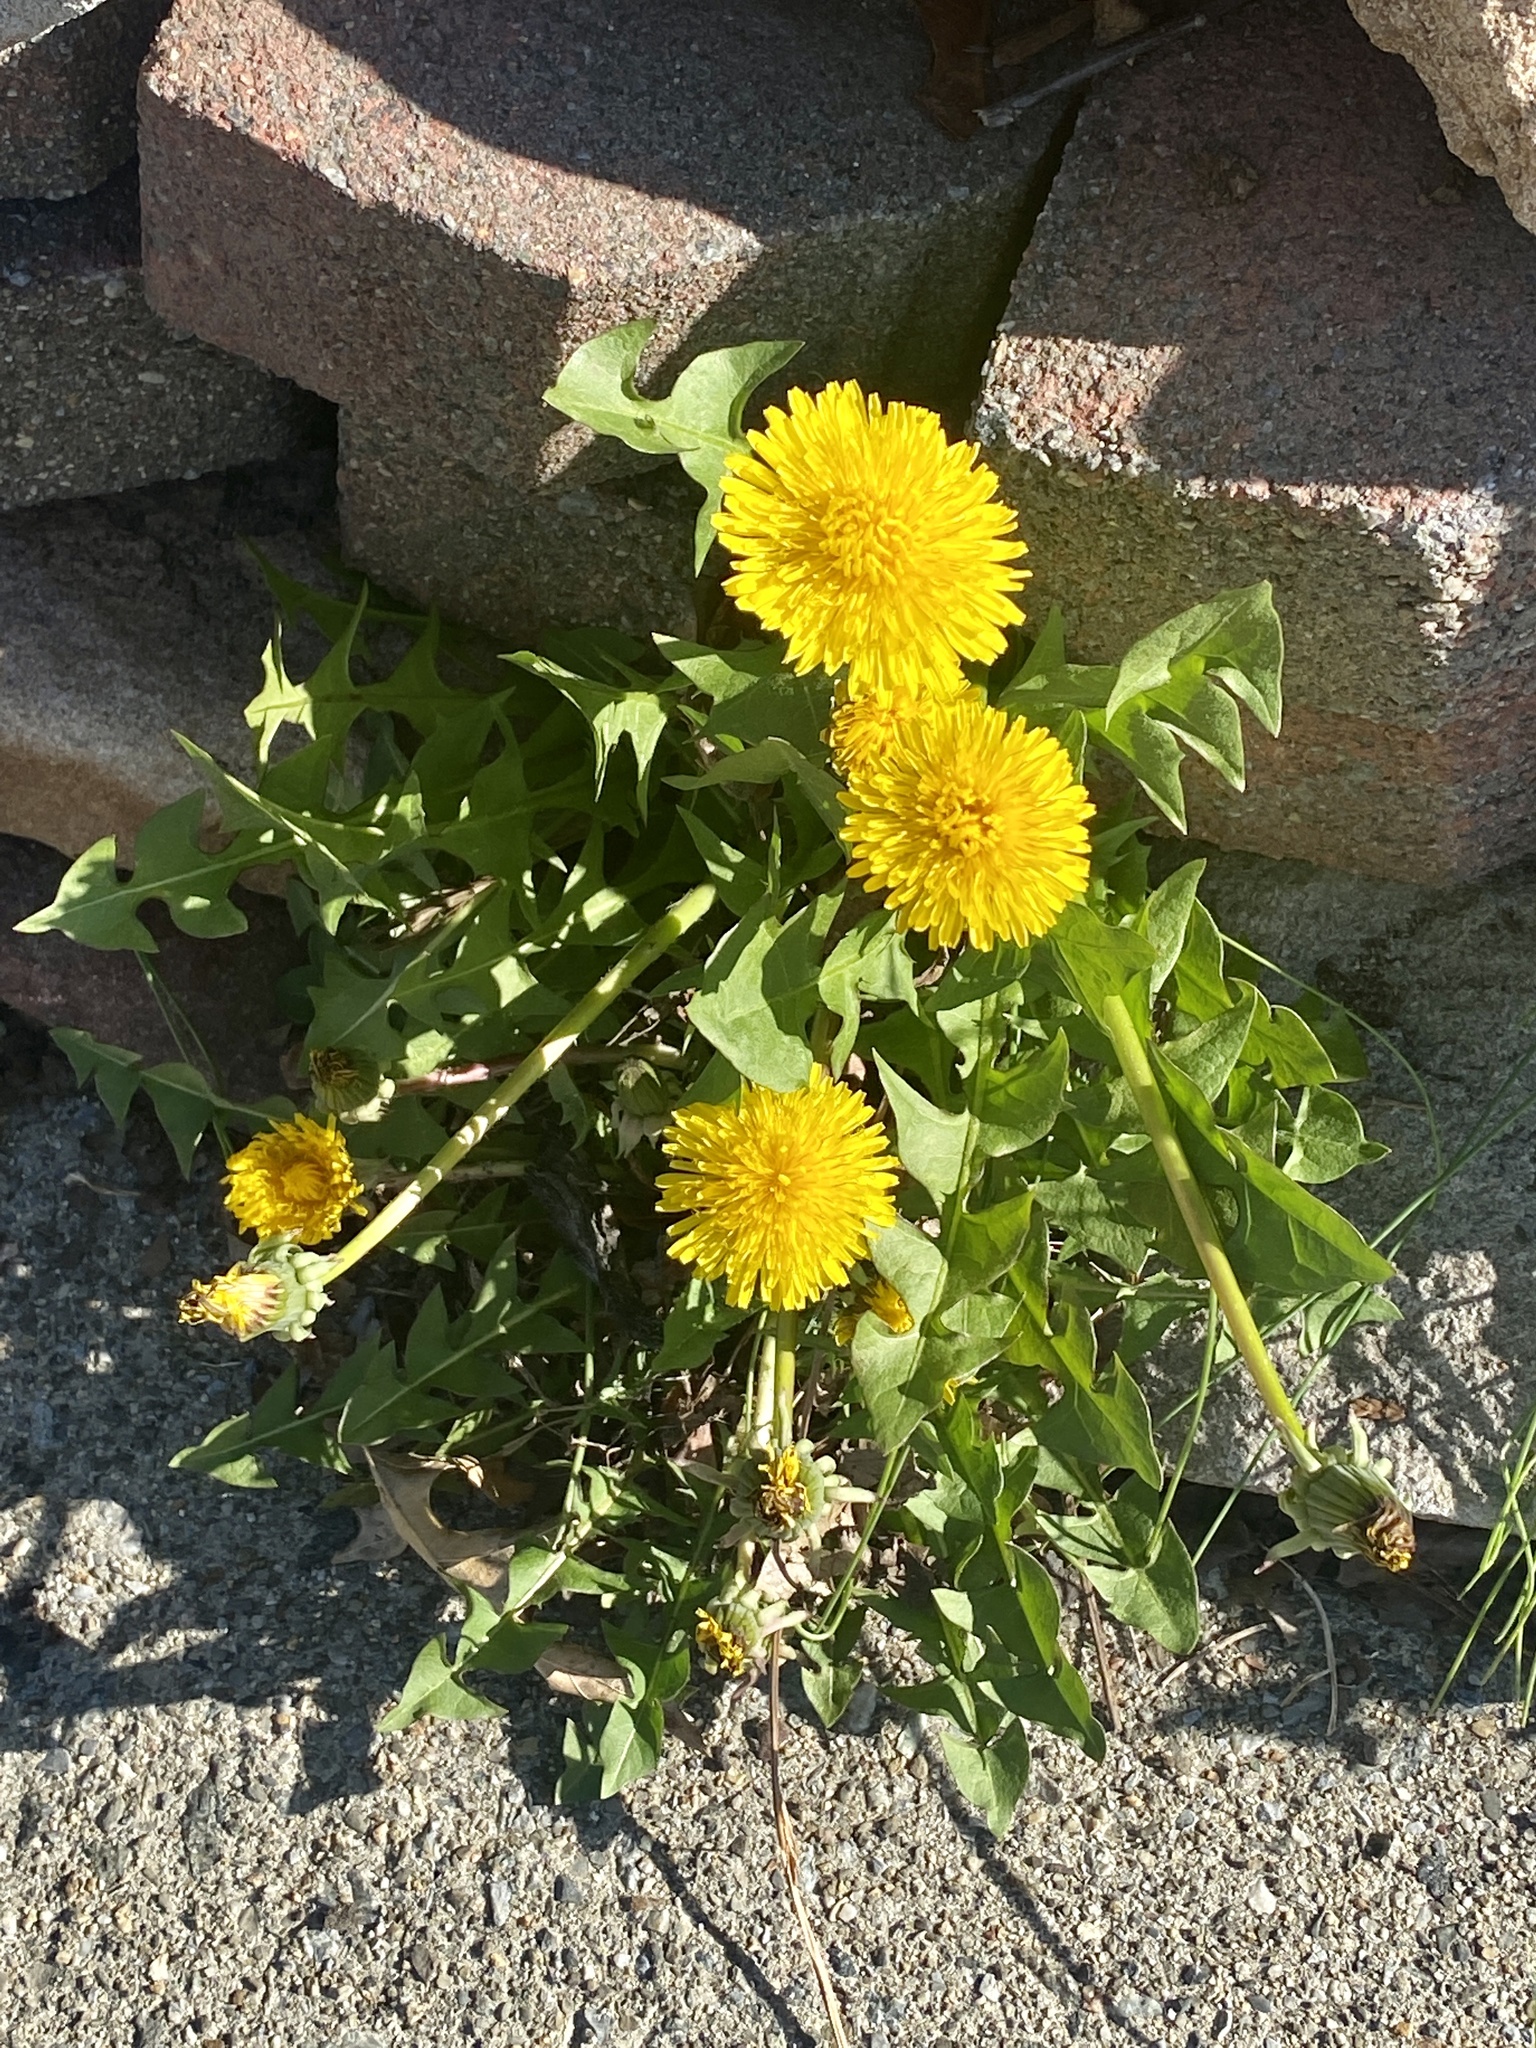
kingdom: Plantae
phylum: Tracheophyta
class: Magnoliopsida
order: Asterales
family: Asteraceae
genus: Taraxacum
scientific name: Taraxacum
